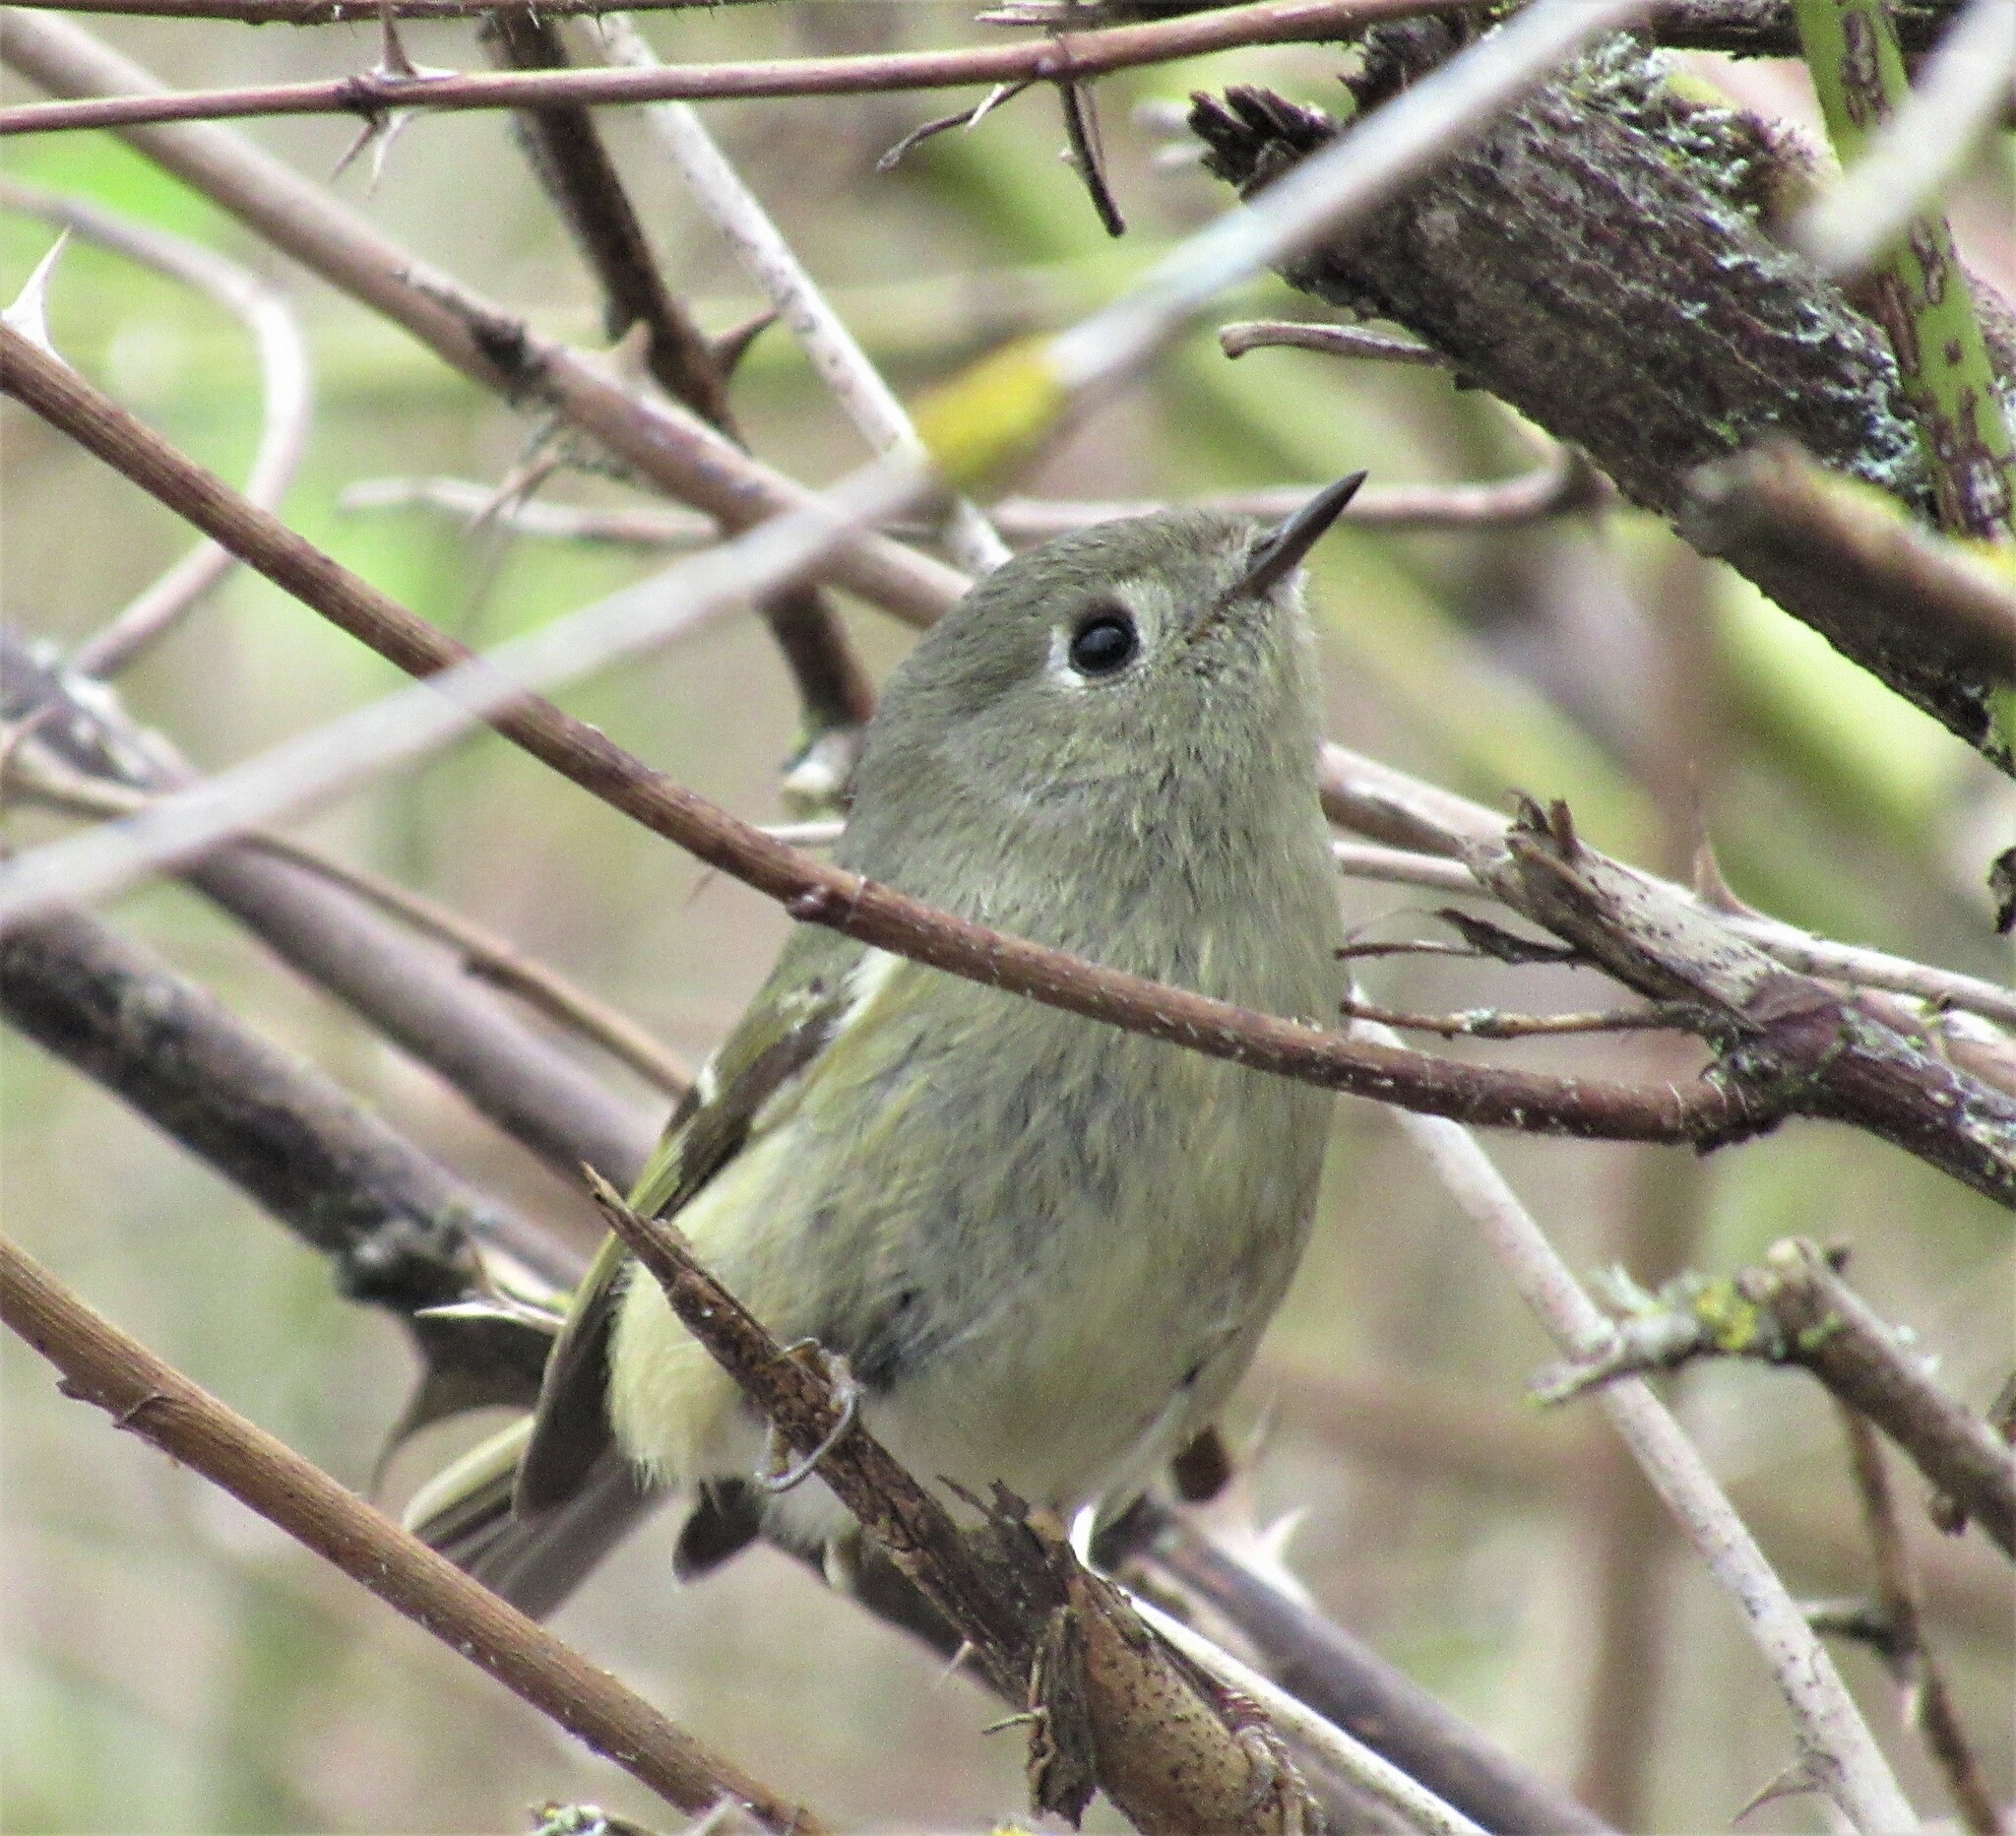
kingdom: Animalia
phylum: Chordata
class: Aves
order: Passeriformes
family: Regulidae
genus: Regulus
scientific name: Regulus calendula
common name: Ruby-crowned kinglet
